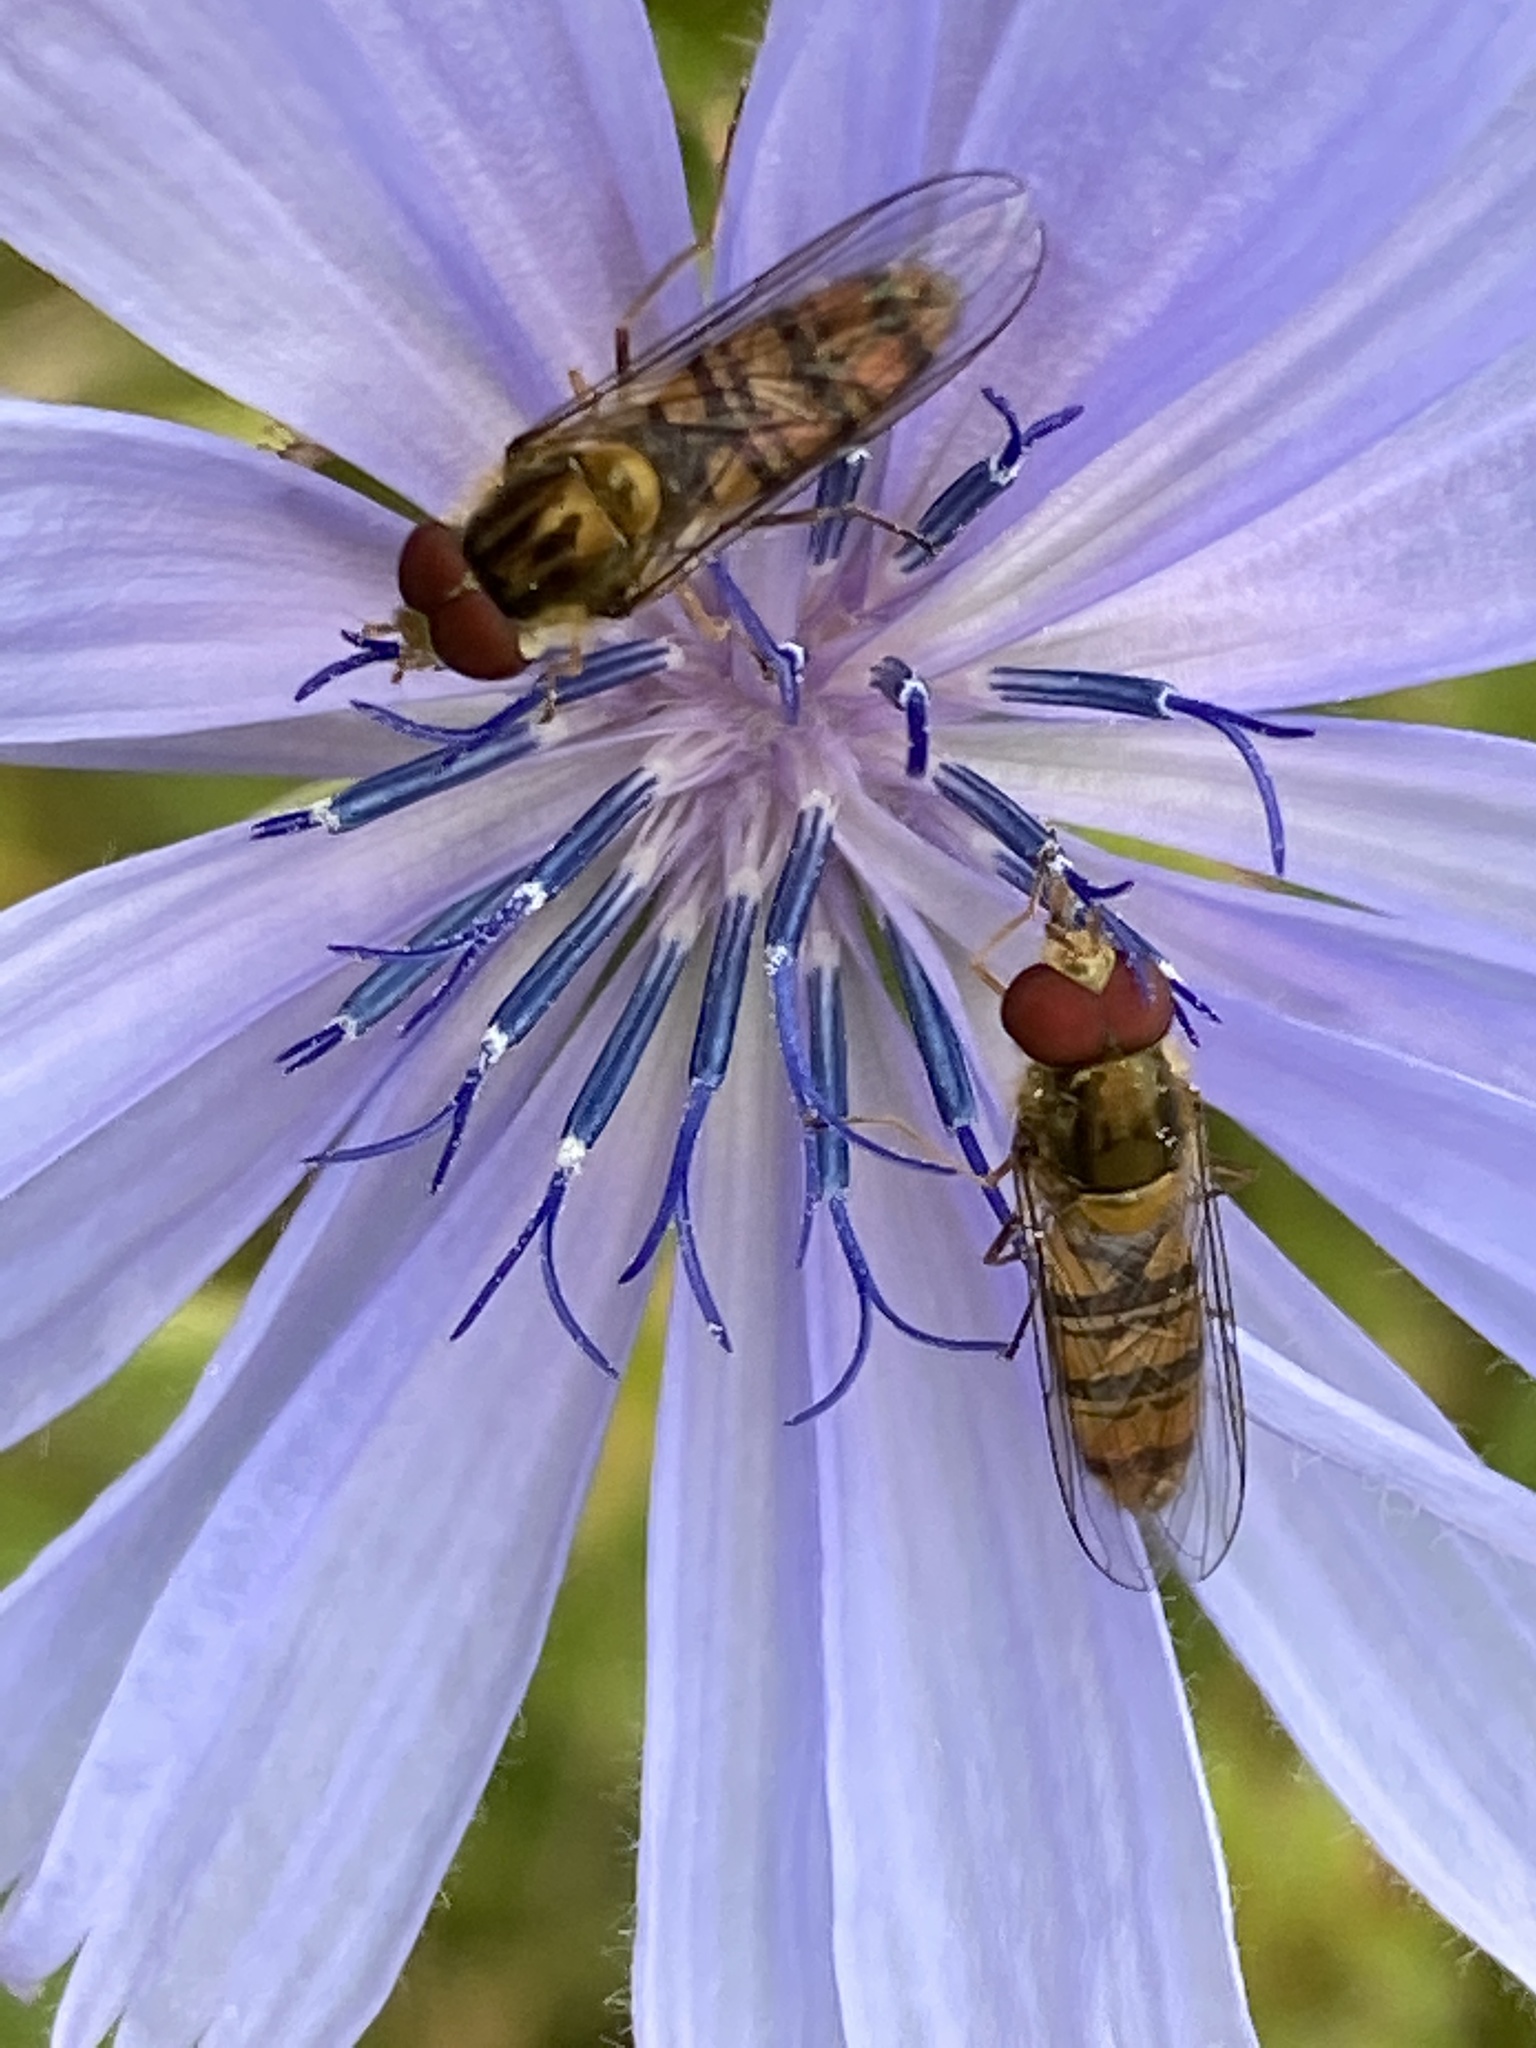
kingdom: Animalia
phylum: Arthropoda
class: Insecta
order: Diptera
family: Syrphidae
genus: Episyrphus
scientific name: Episyrphus balteatus
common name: Marmalade hoverfly
